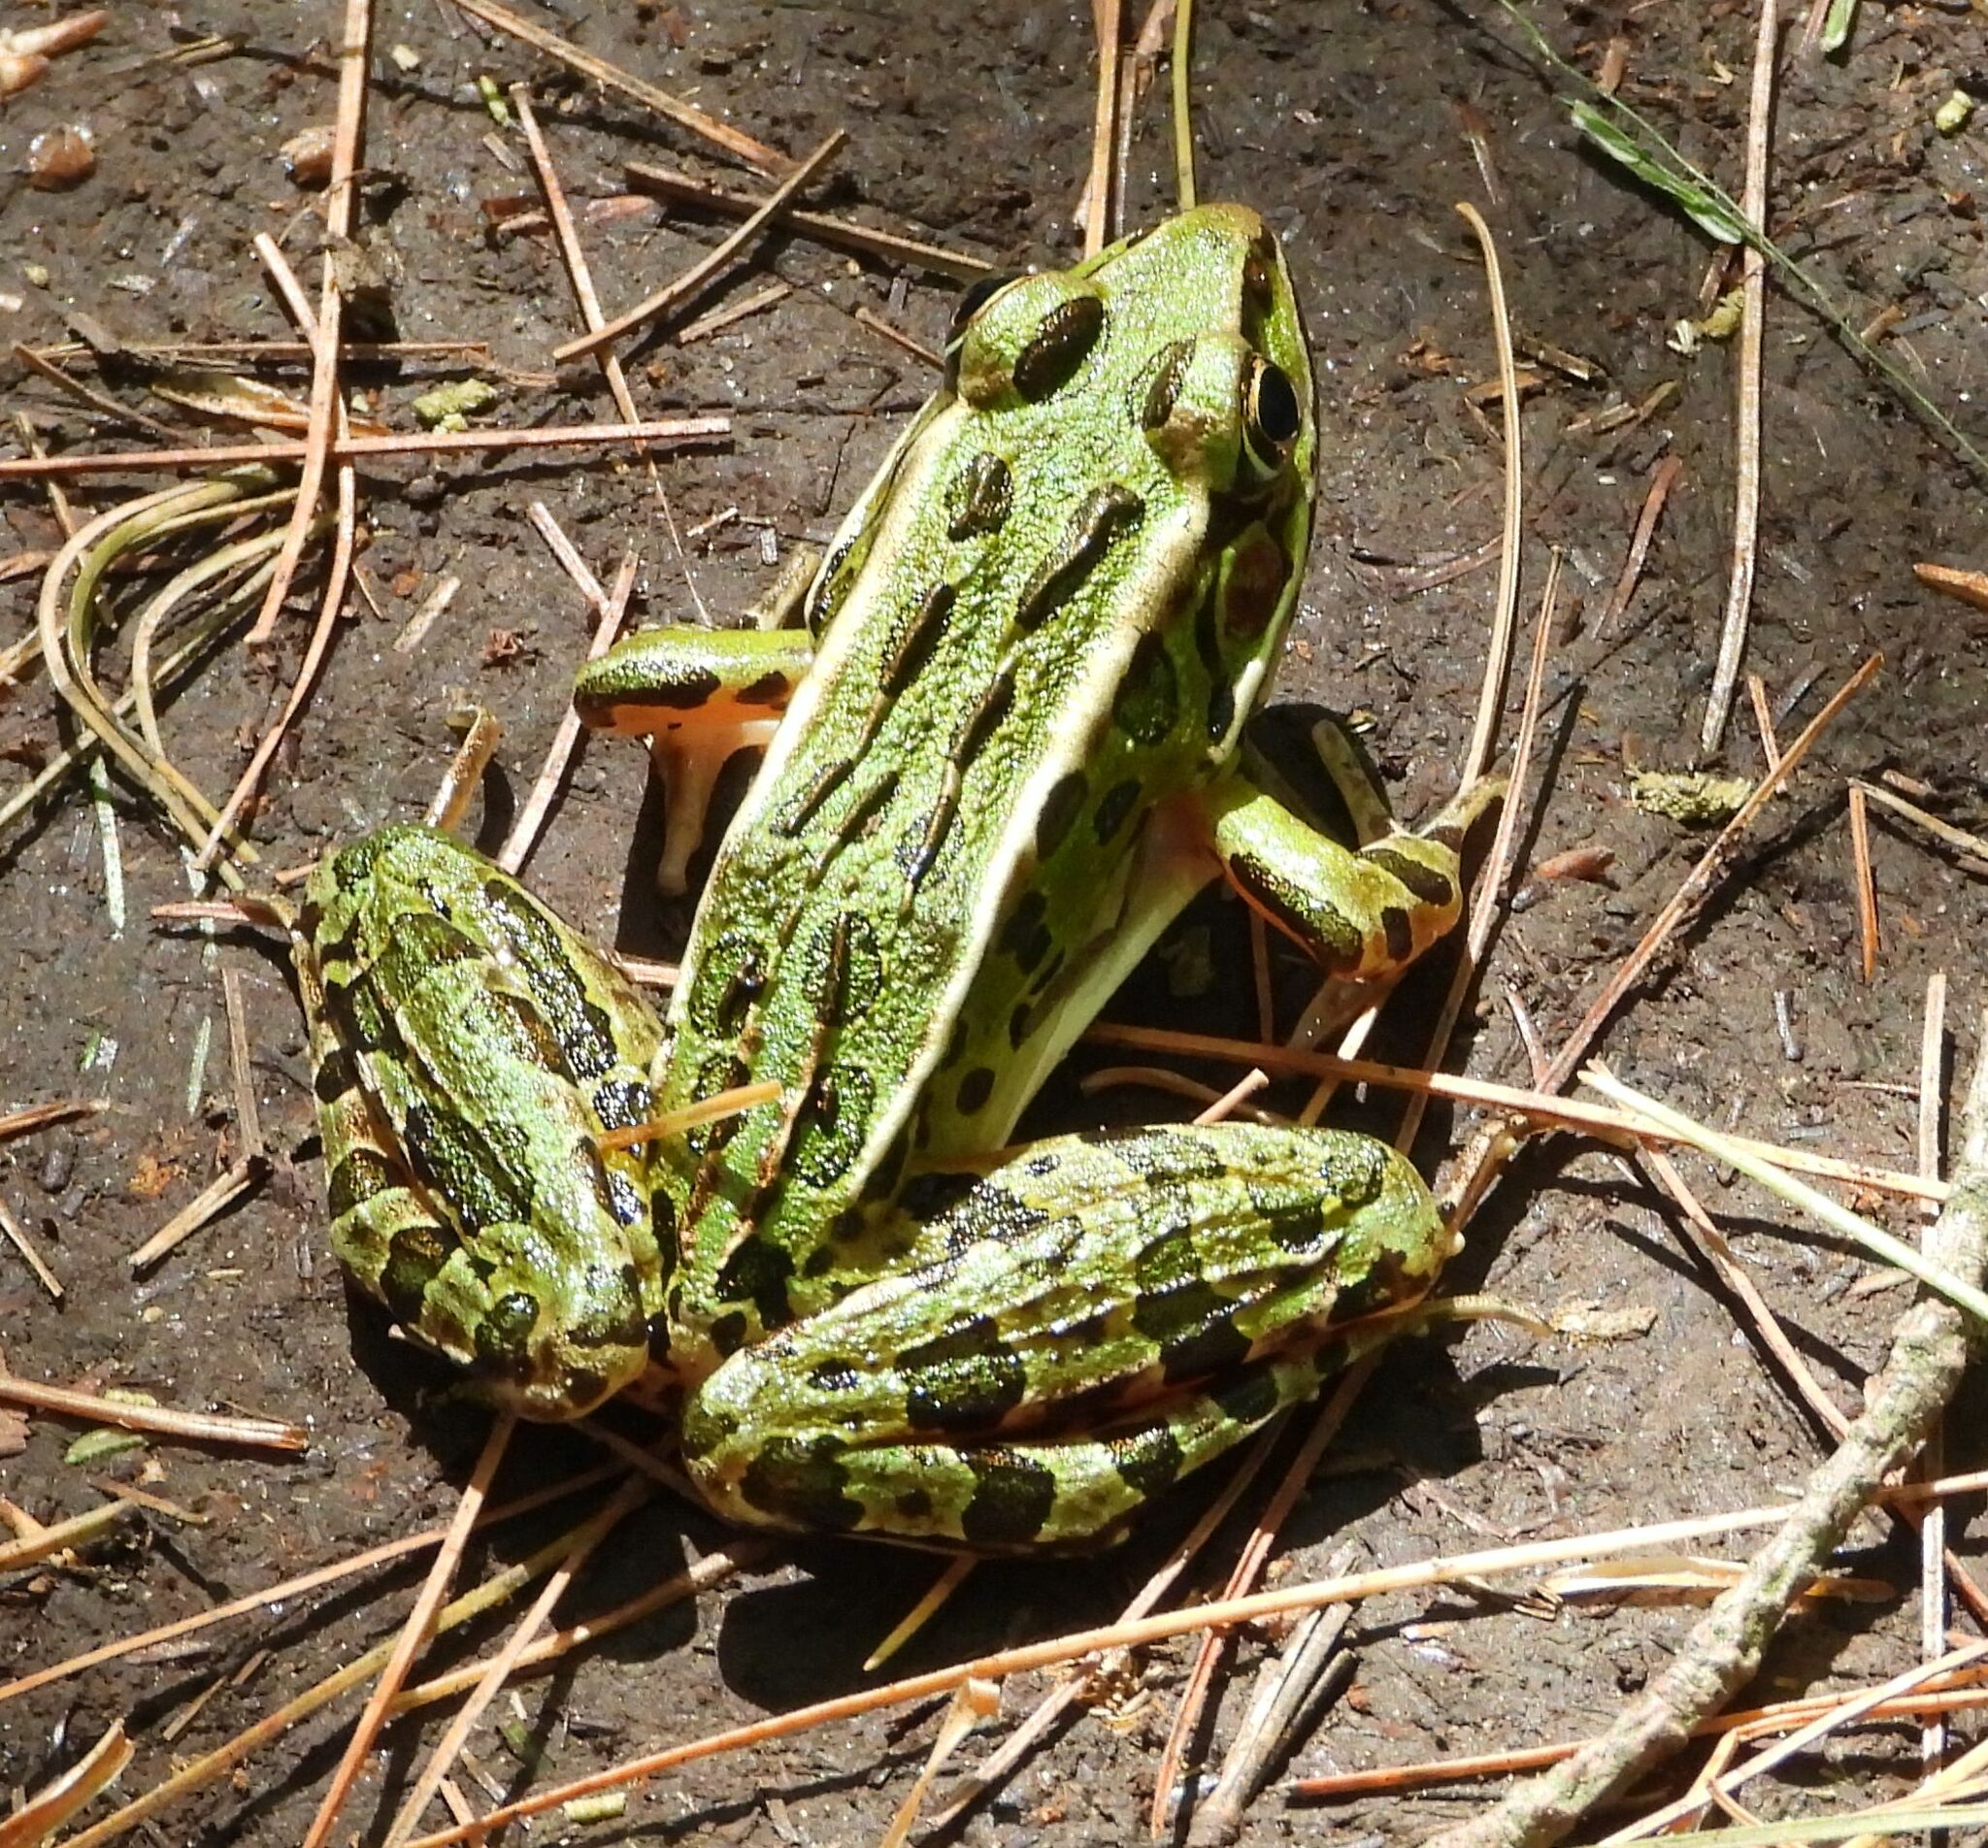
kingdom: Animalia
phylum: Chordata
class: Amphibia
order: Anura
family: Ranidae
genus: Lithobates
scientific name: Lithobates pipiens
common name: Northern leopard frog
